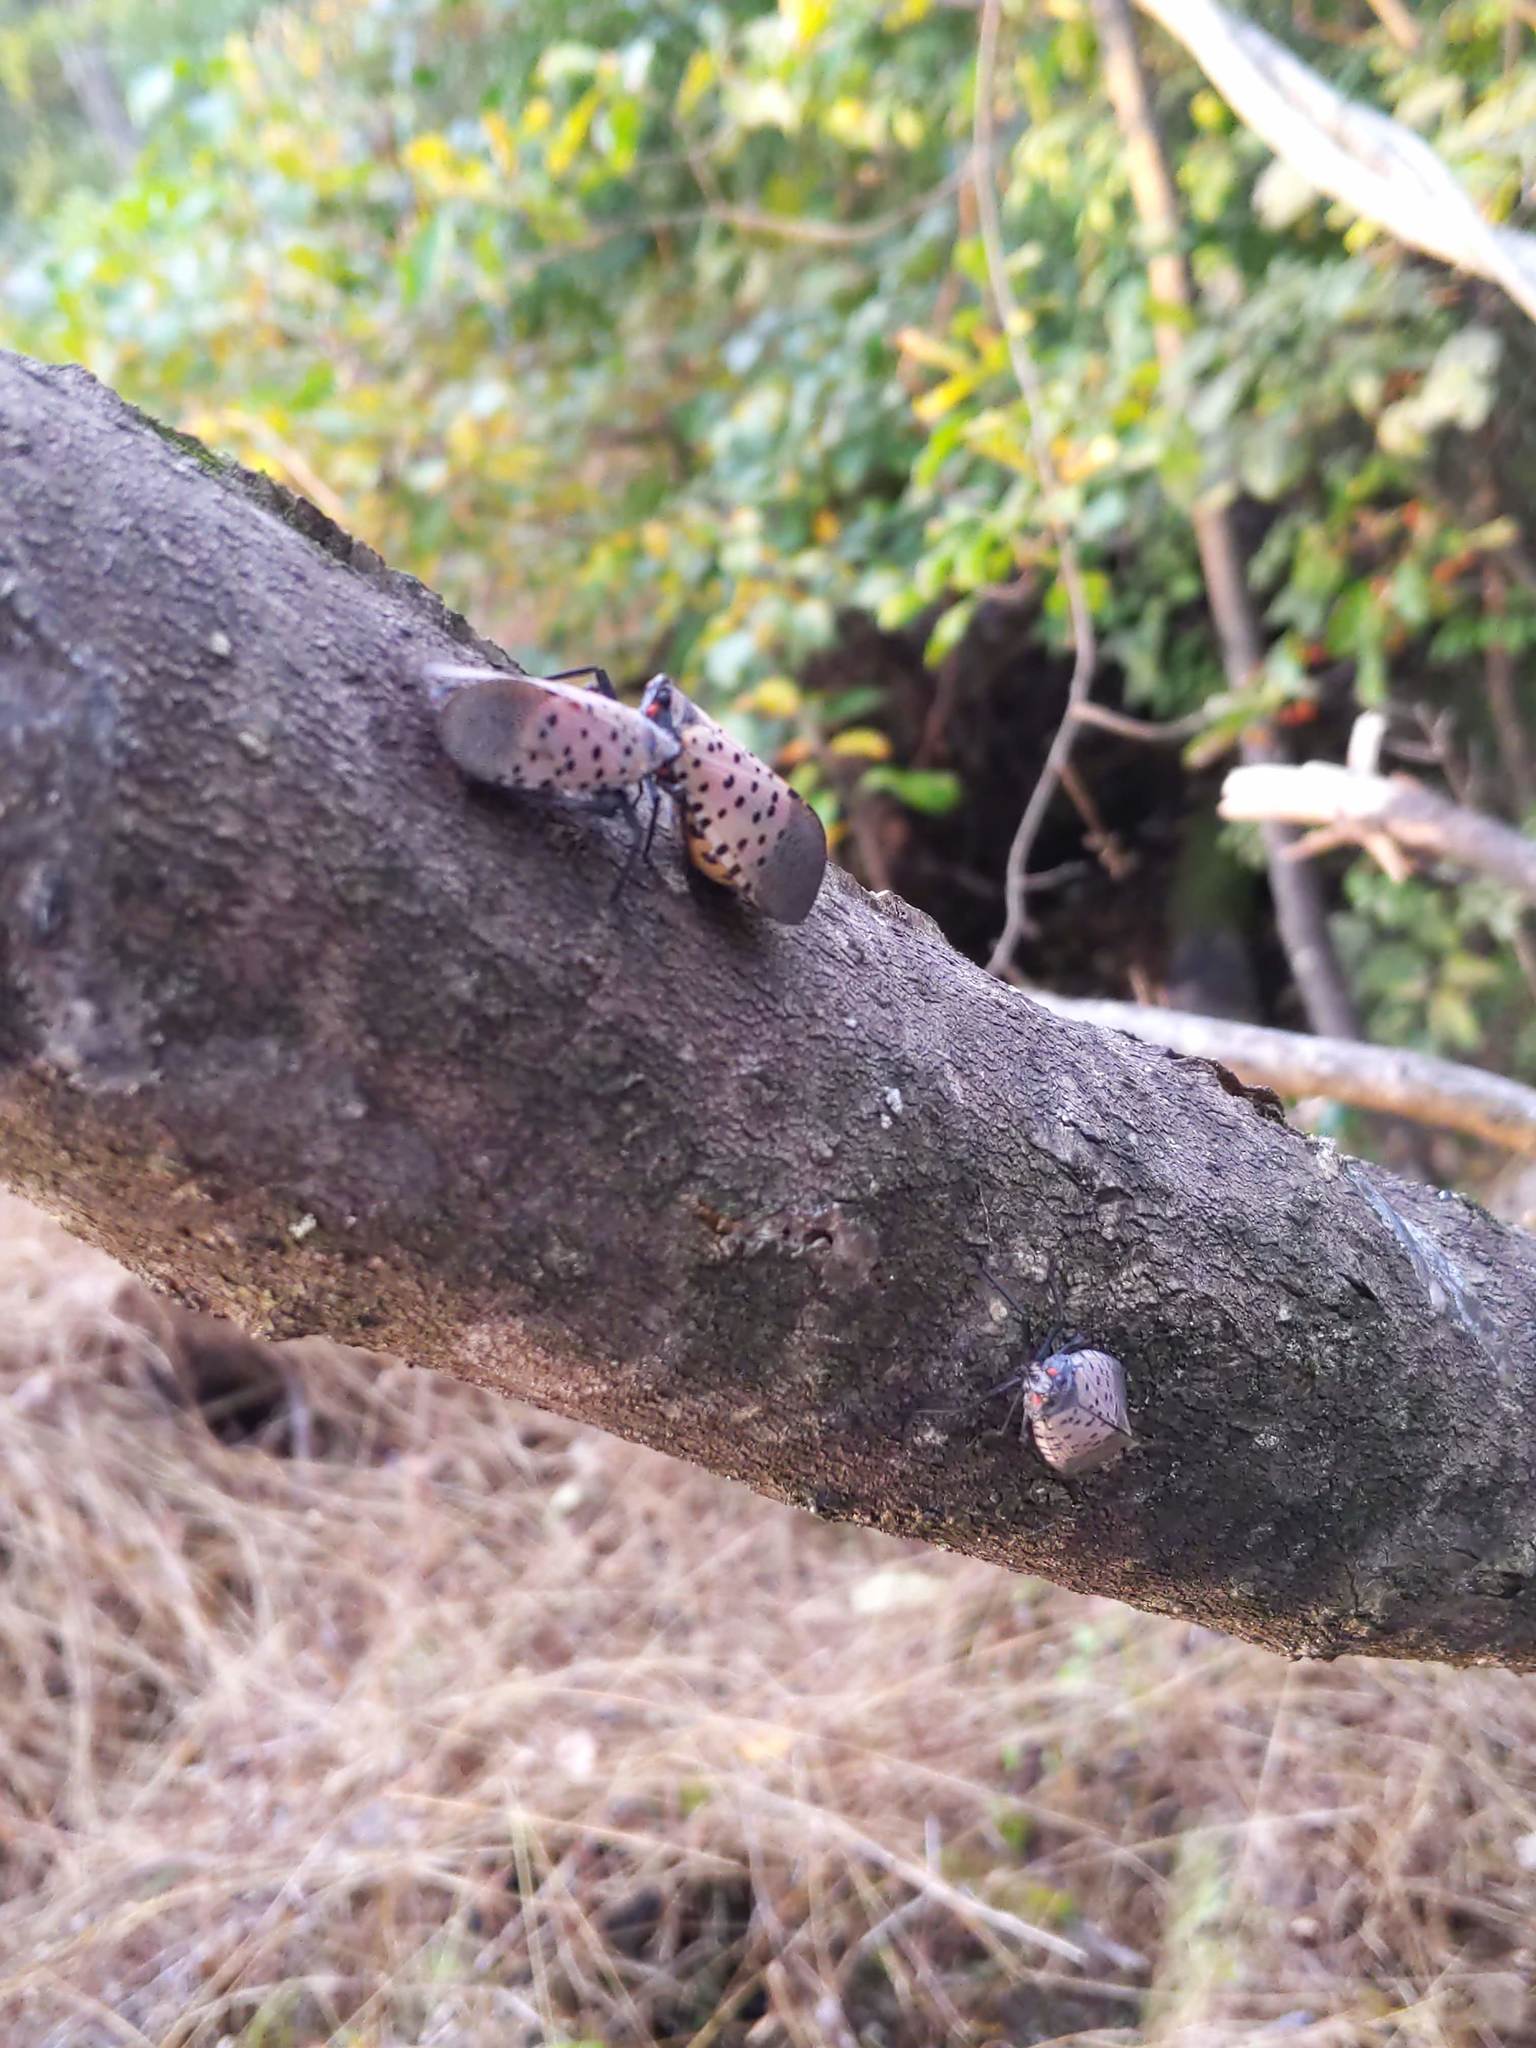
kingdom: Animalia
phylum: Arthropoda
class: Insecta
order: Hemiptera
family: Fulgoridae
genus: Lycorma
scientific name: Lycorma delicatula
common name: Spotted lanternfly
